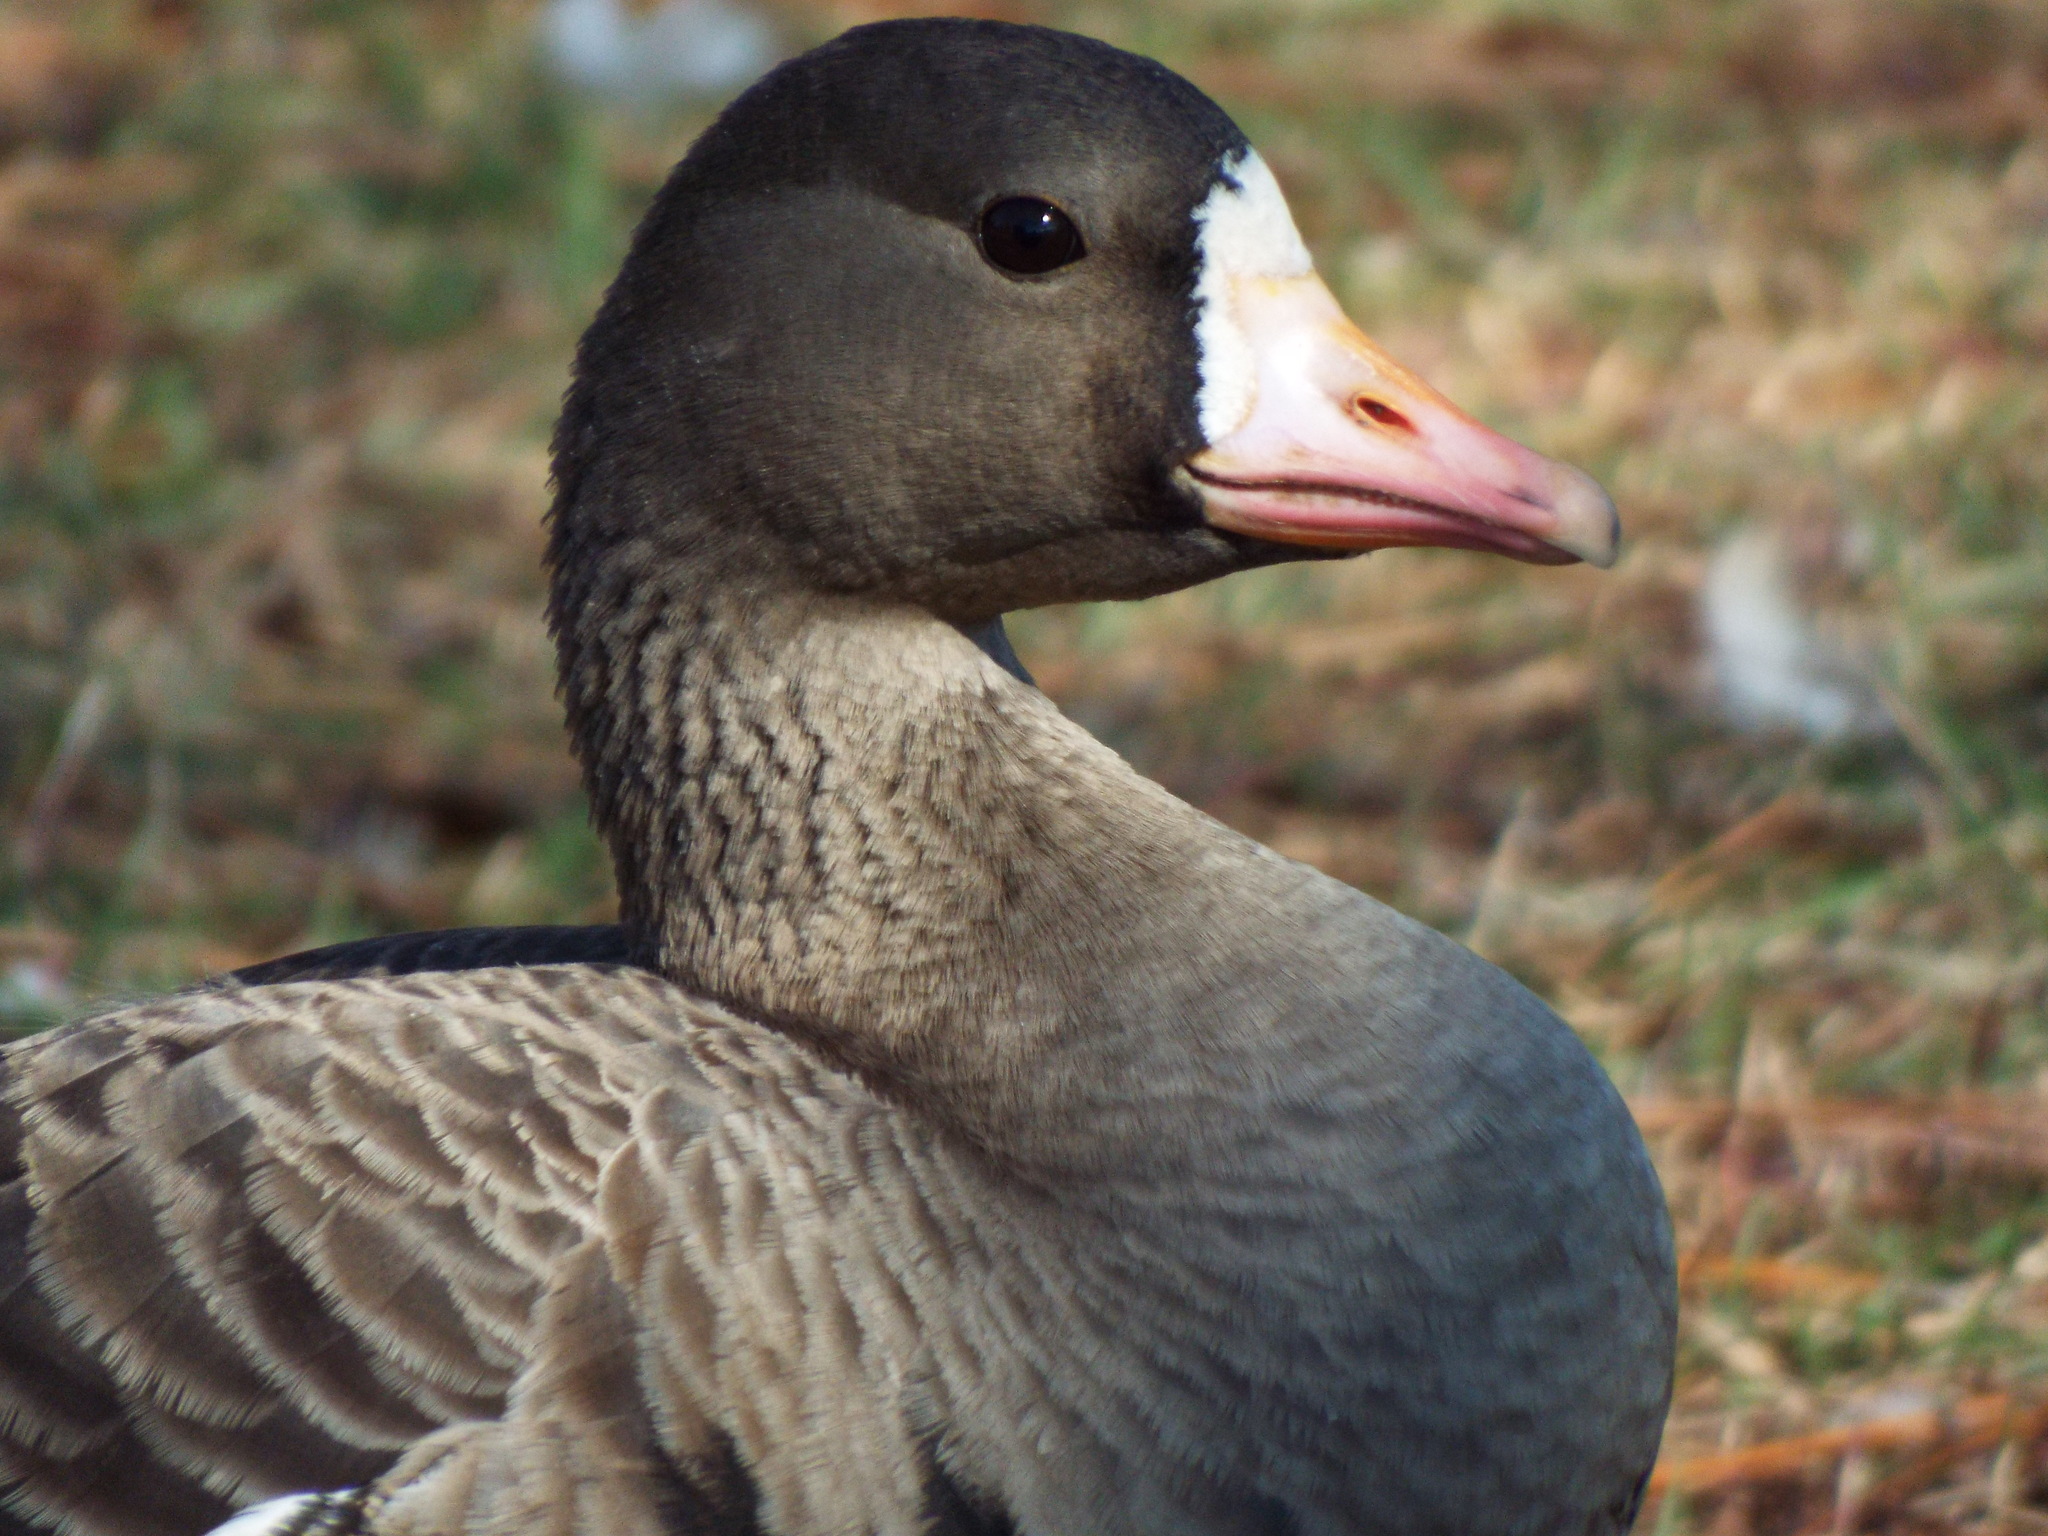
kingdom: Animalia
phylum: Chordata
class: Aves
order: Anseriformes
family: Anatidae
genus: Anser
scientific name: Anser albifrons
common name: Greater white-fronted goose
